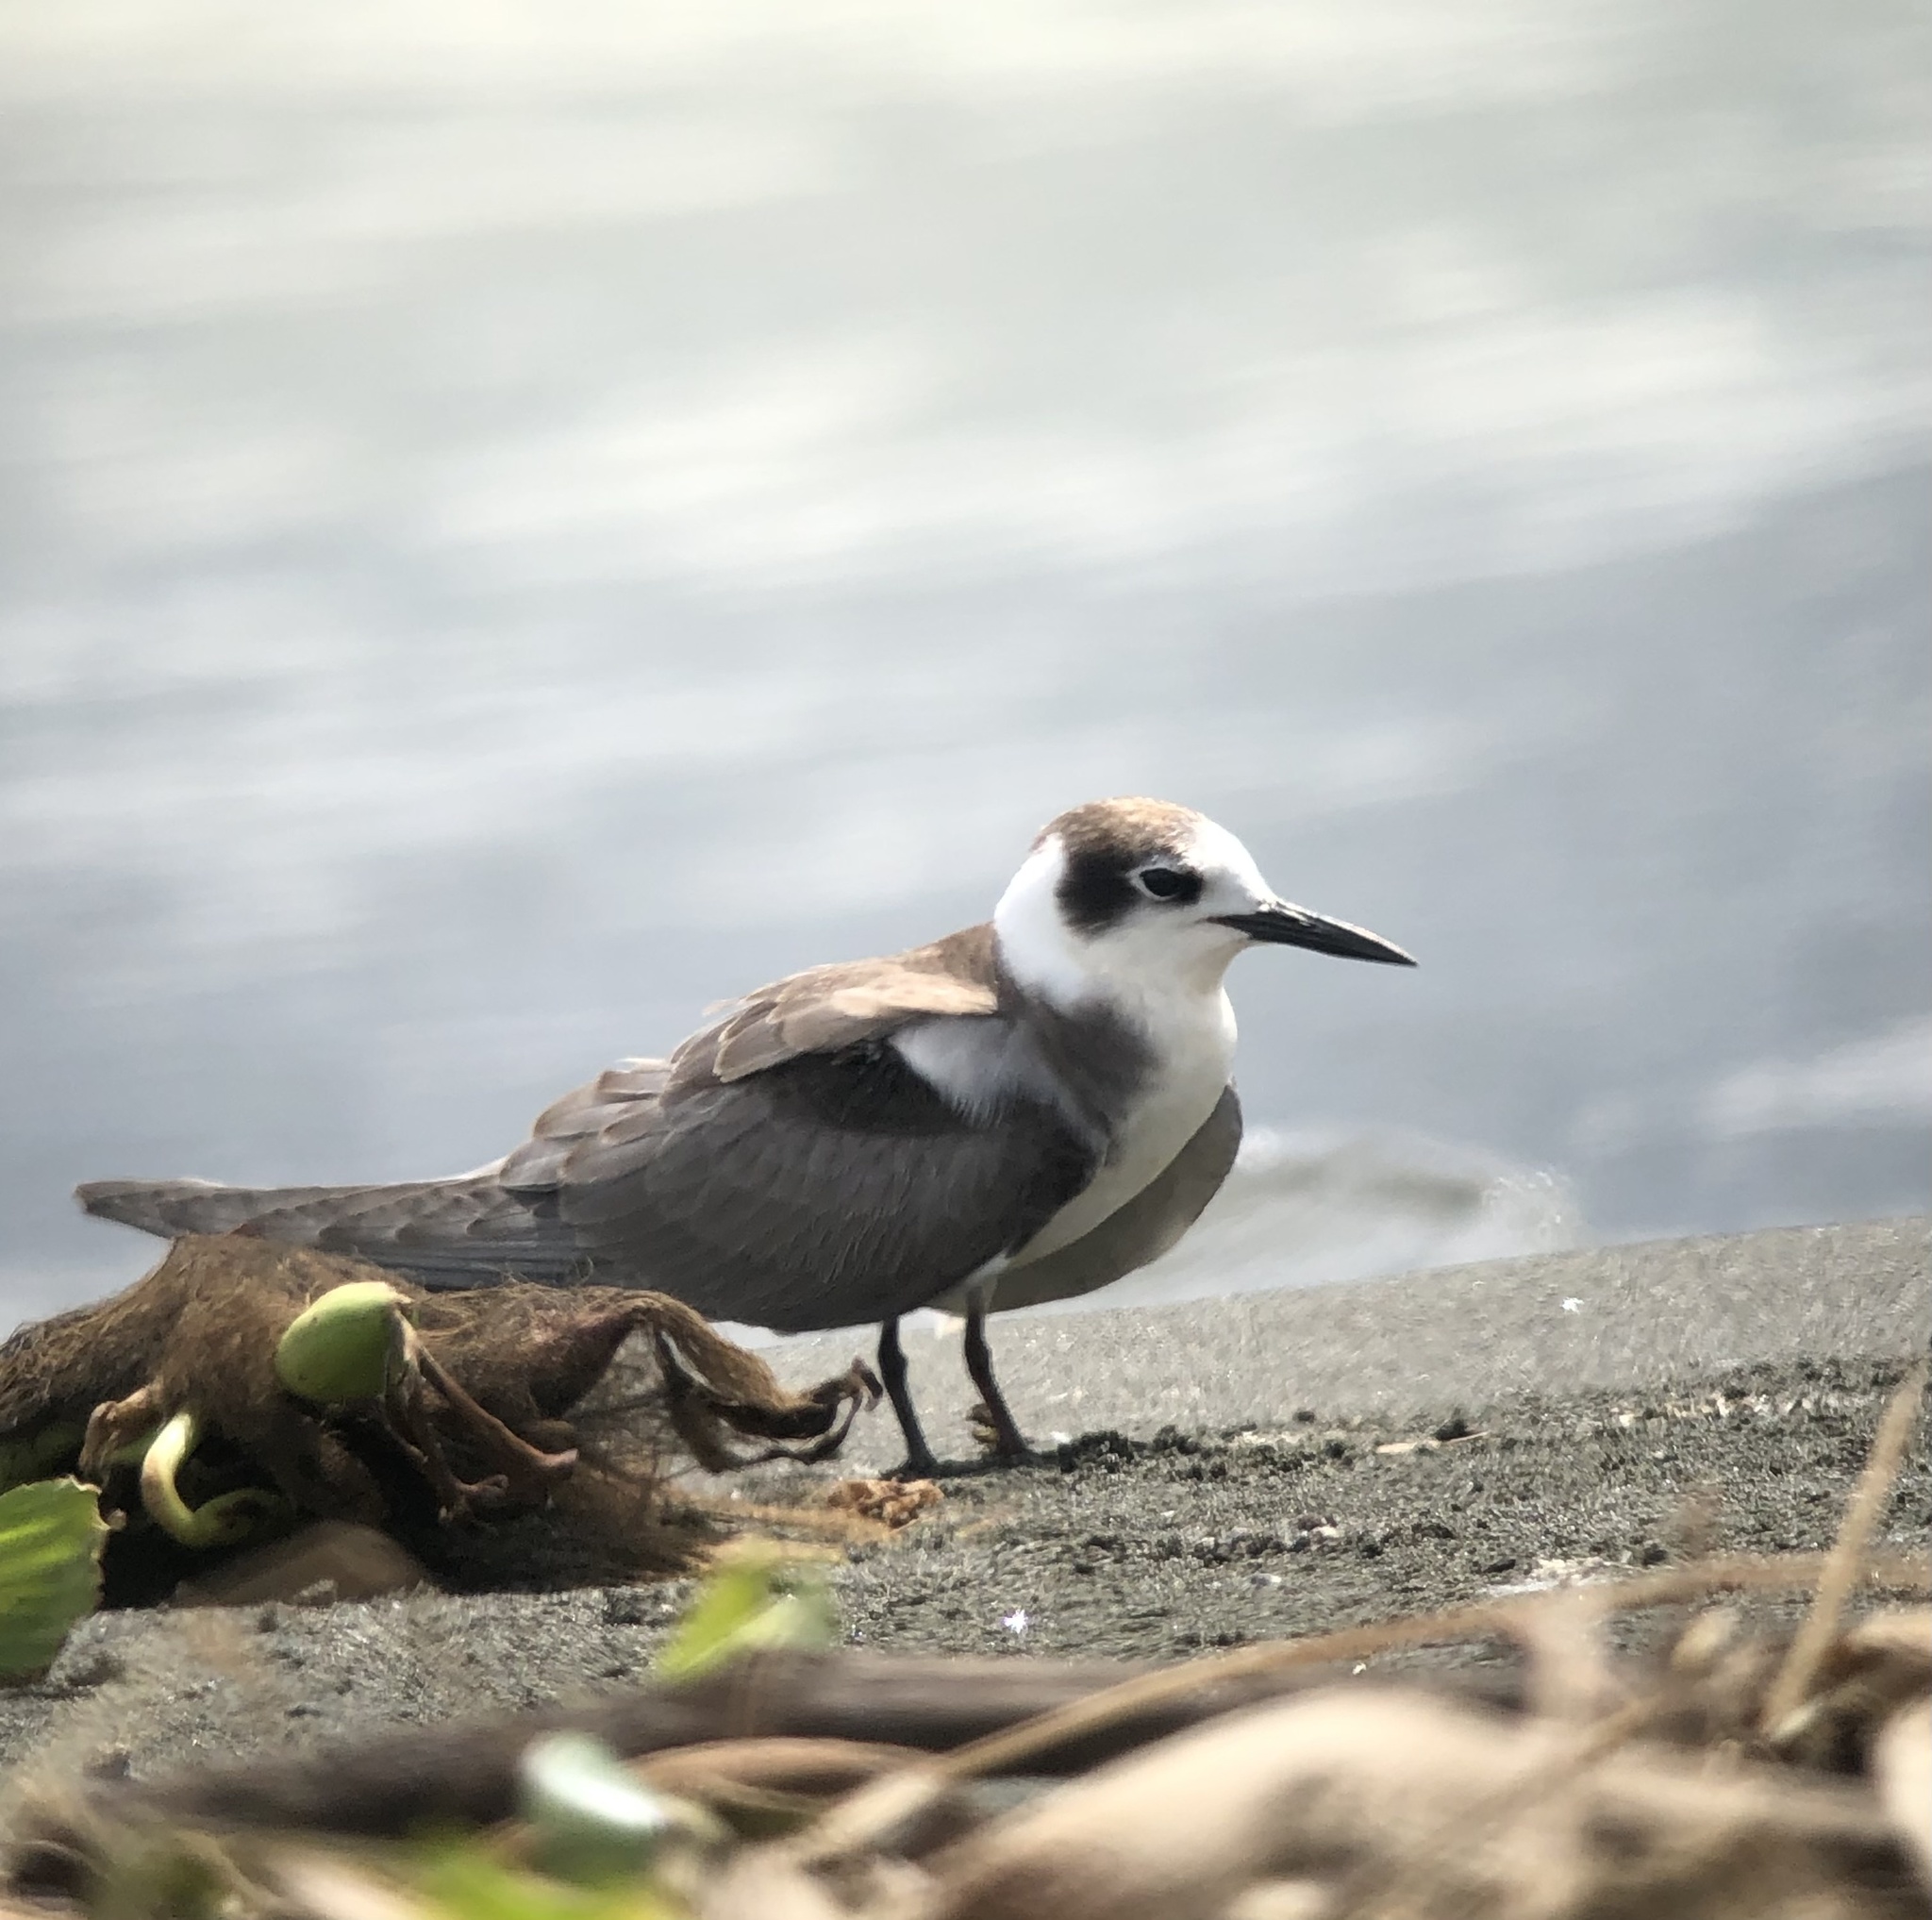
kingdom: Animalia
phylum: Chordata
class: Aves
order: Charadriiformes
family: Laridae
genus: Chlidonias
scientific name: Chlidonias niger
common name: Black tern
